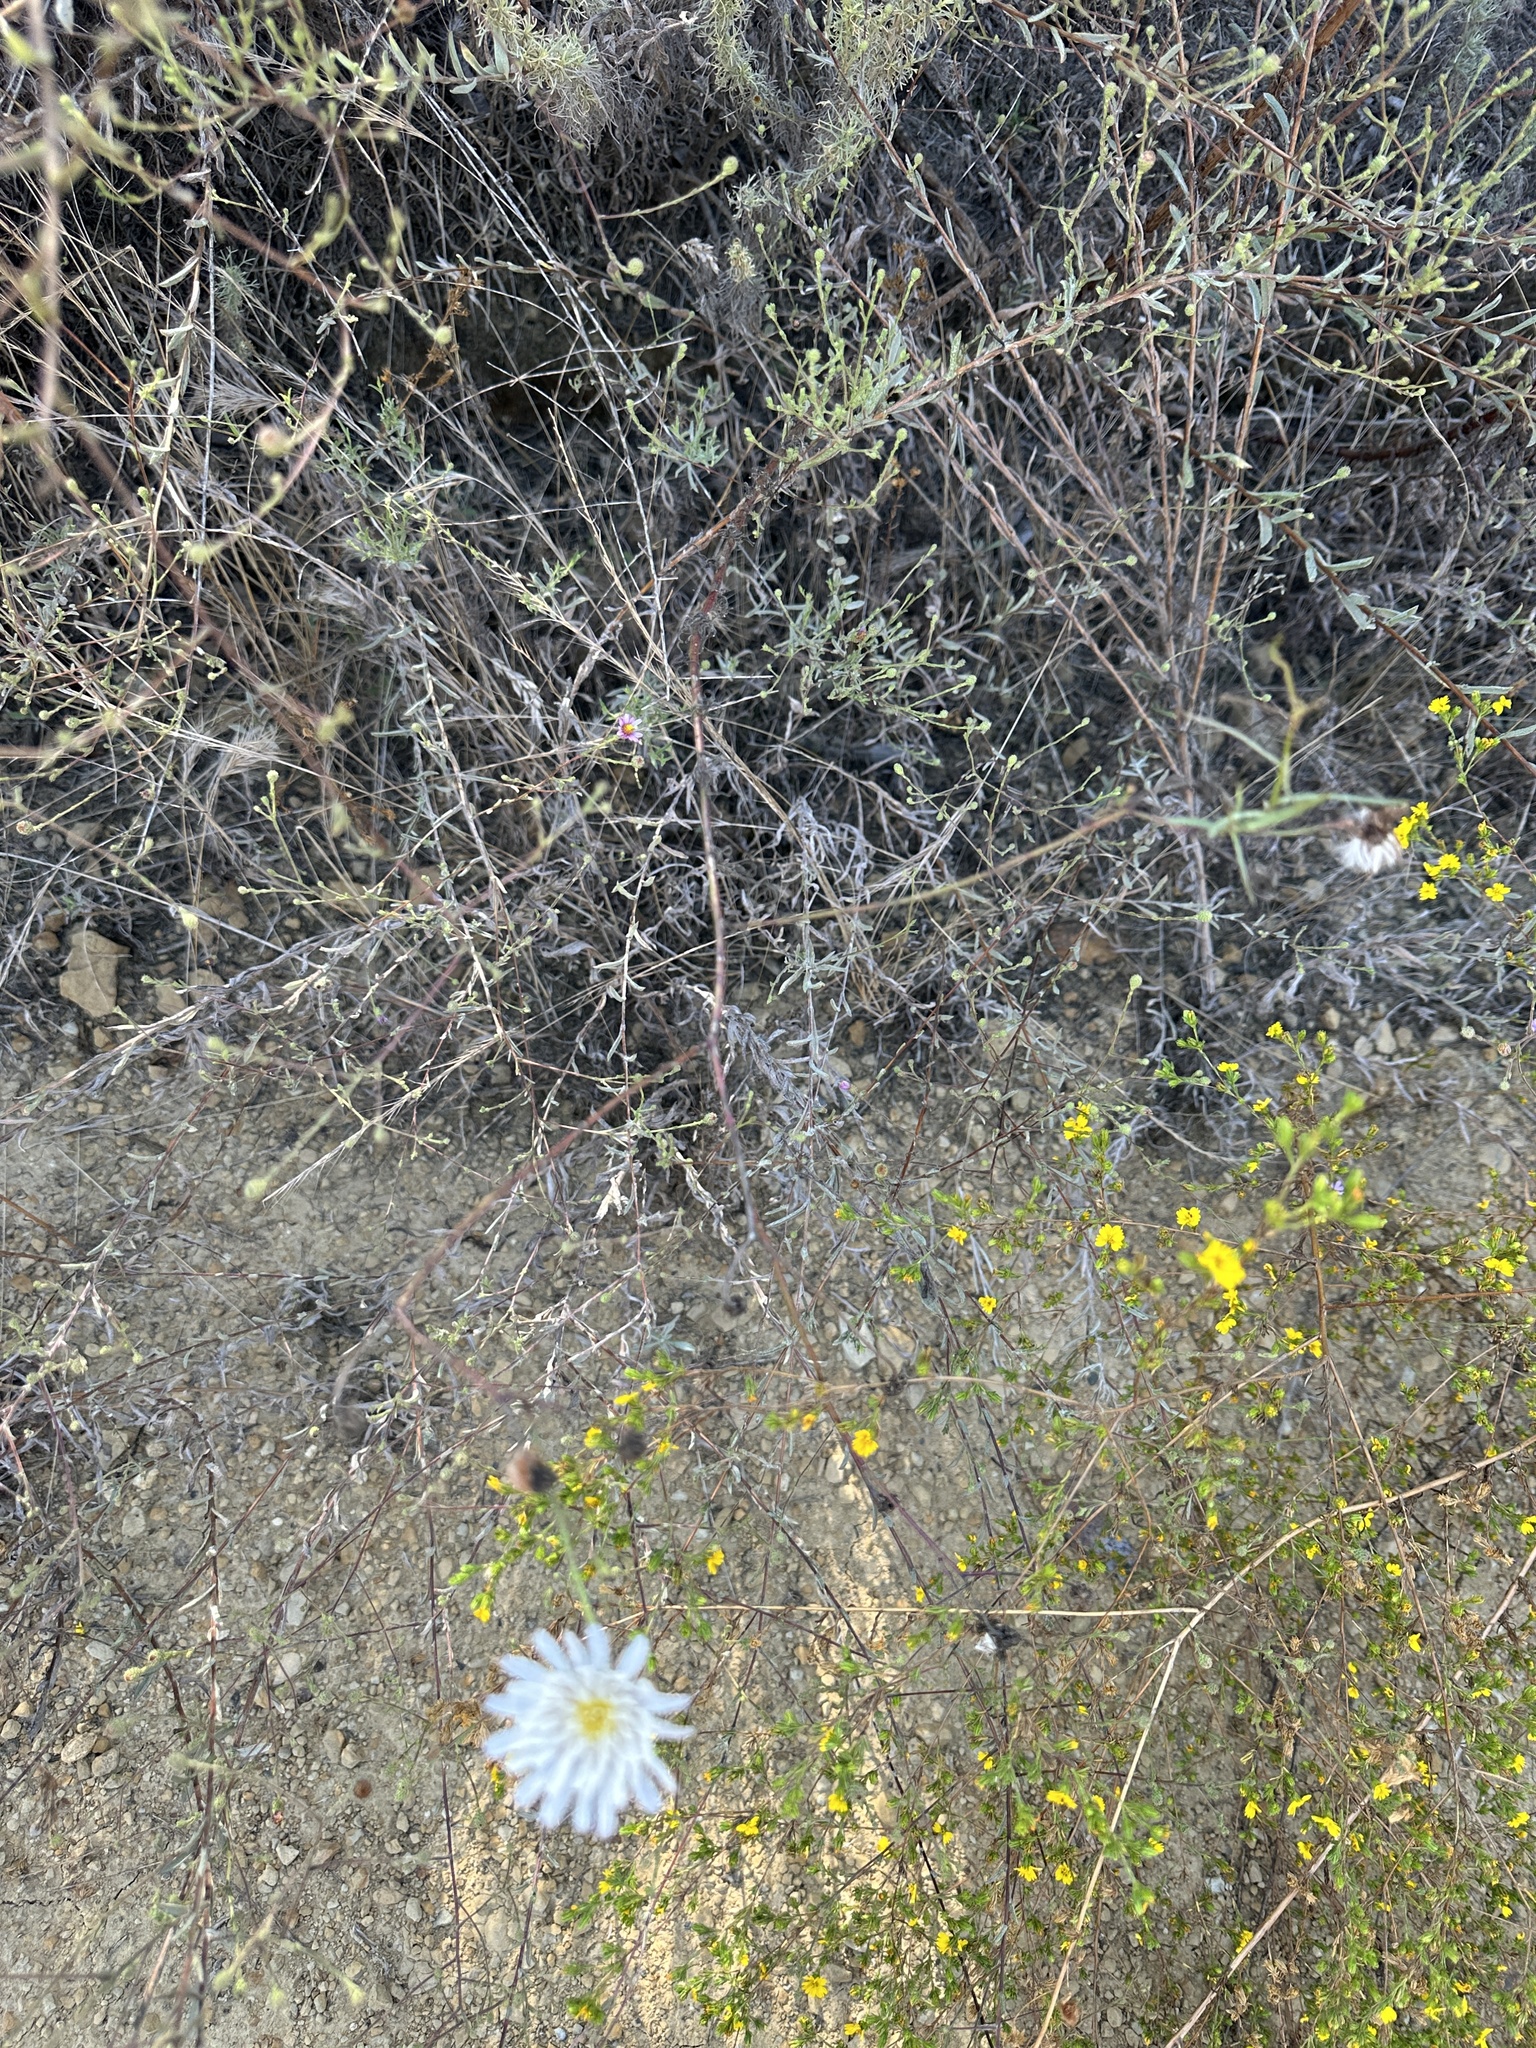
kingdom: Plantae
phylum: Tracheophyta
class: Magnoliopsida
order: Asterales
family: Asteraceae
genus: Malacothrix
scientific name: Malacothrix saxatilis
